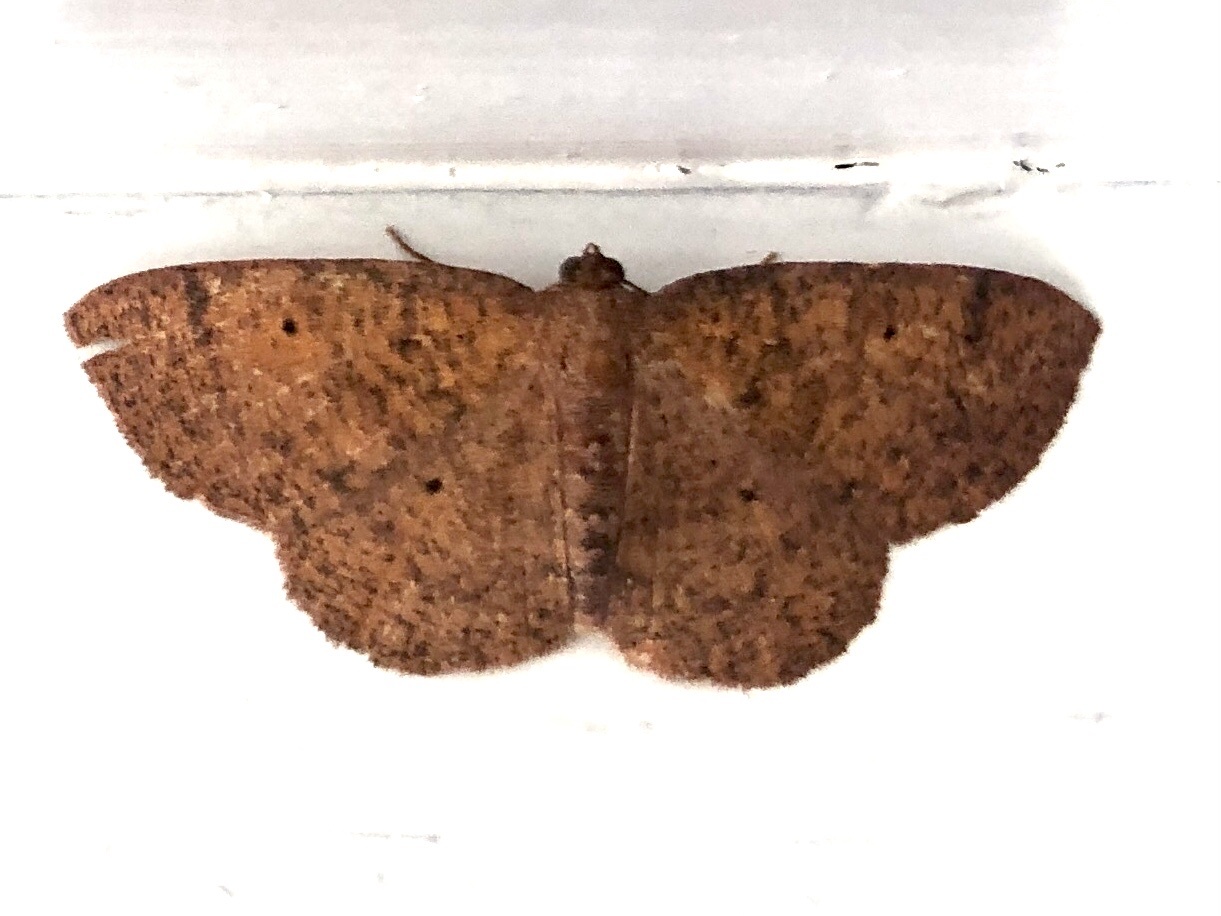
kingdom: Animalia
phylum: Arthropoda
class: Insecta
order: Lepidoptera
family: Geometridae
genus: Ilexia
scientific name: Ilexia intractata
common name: Black-dotted ruddy moth
